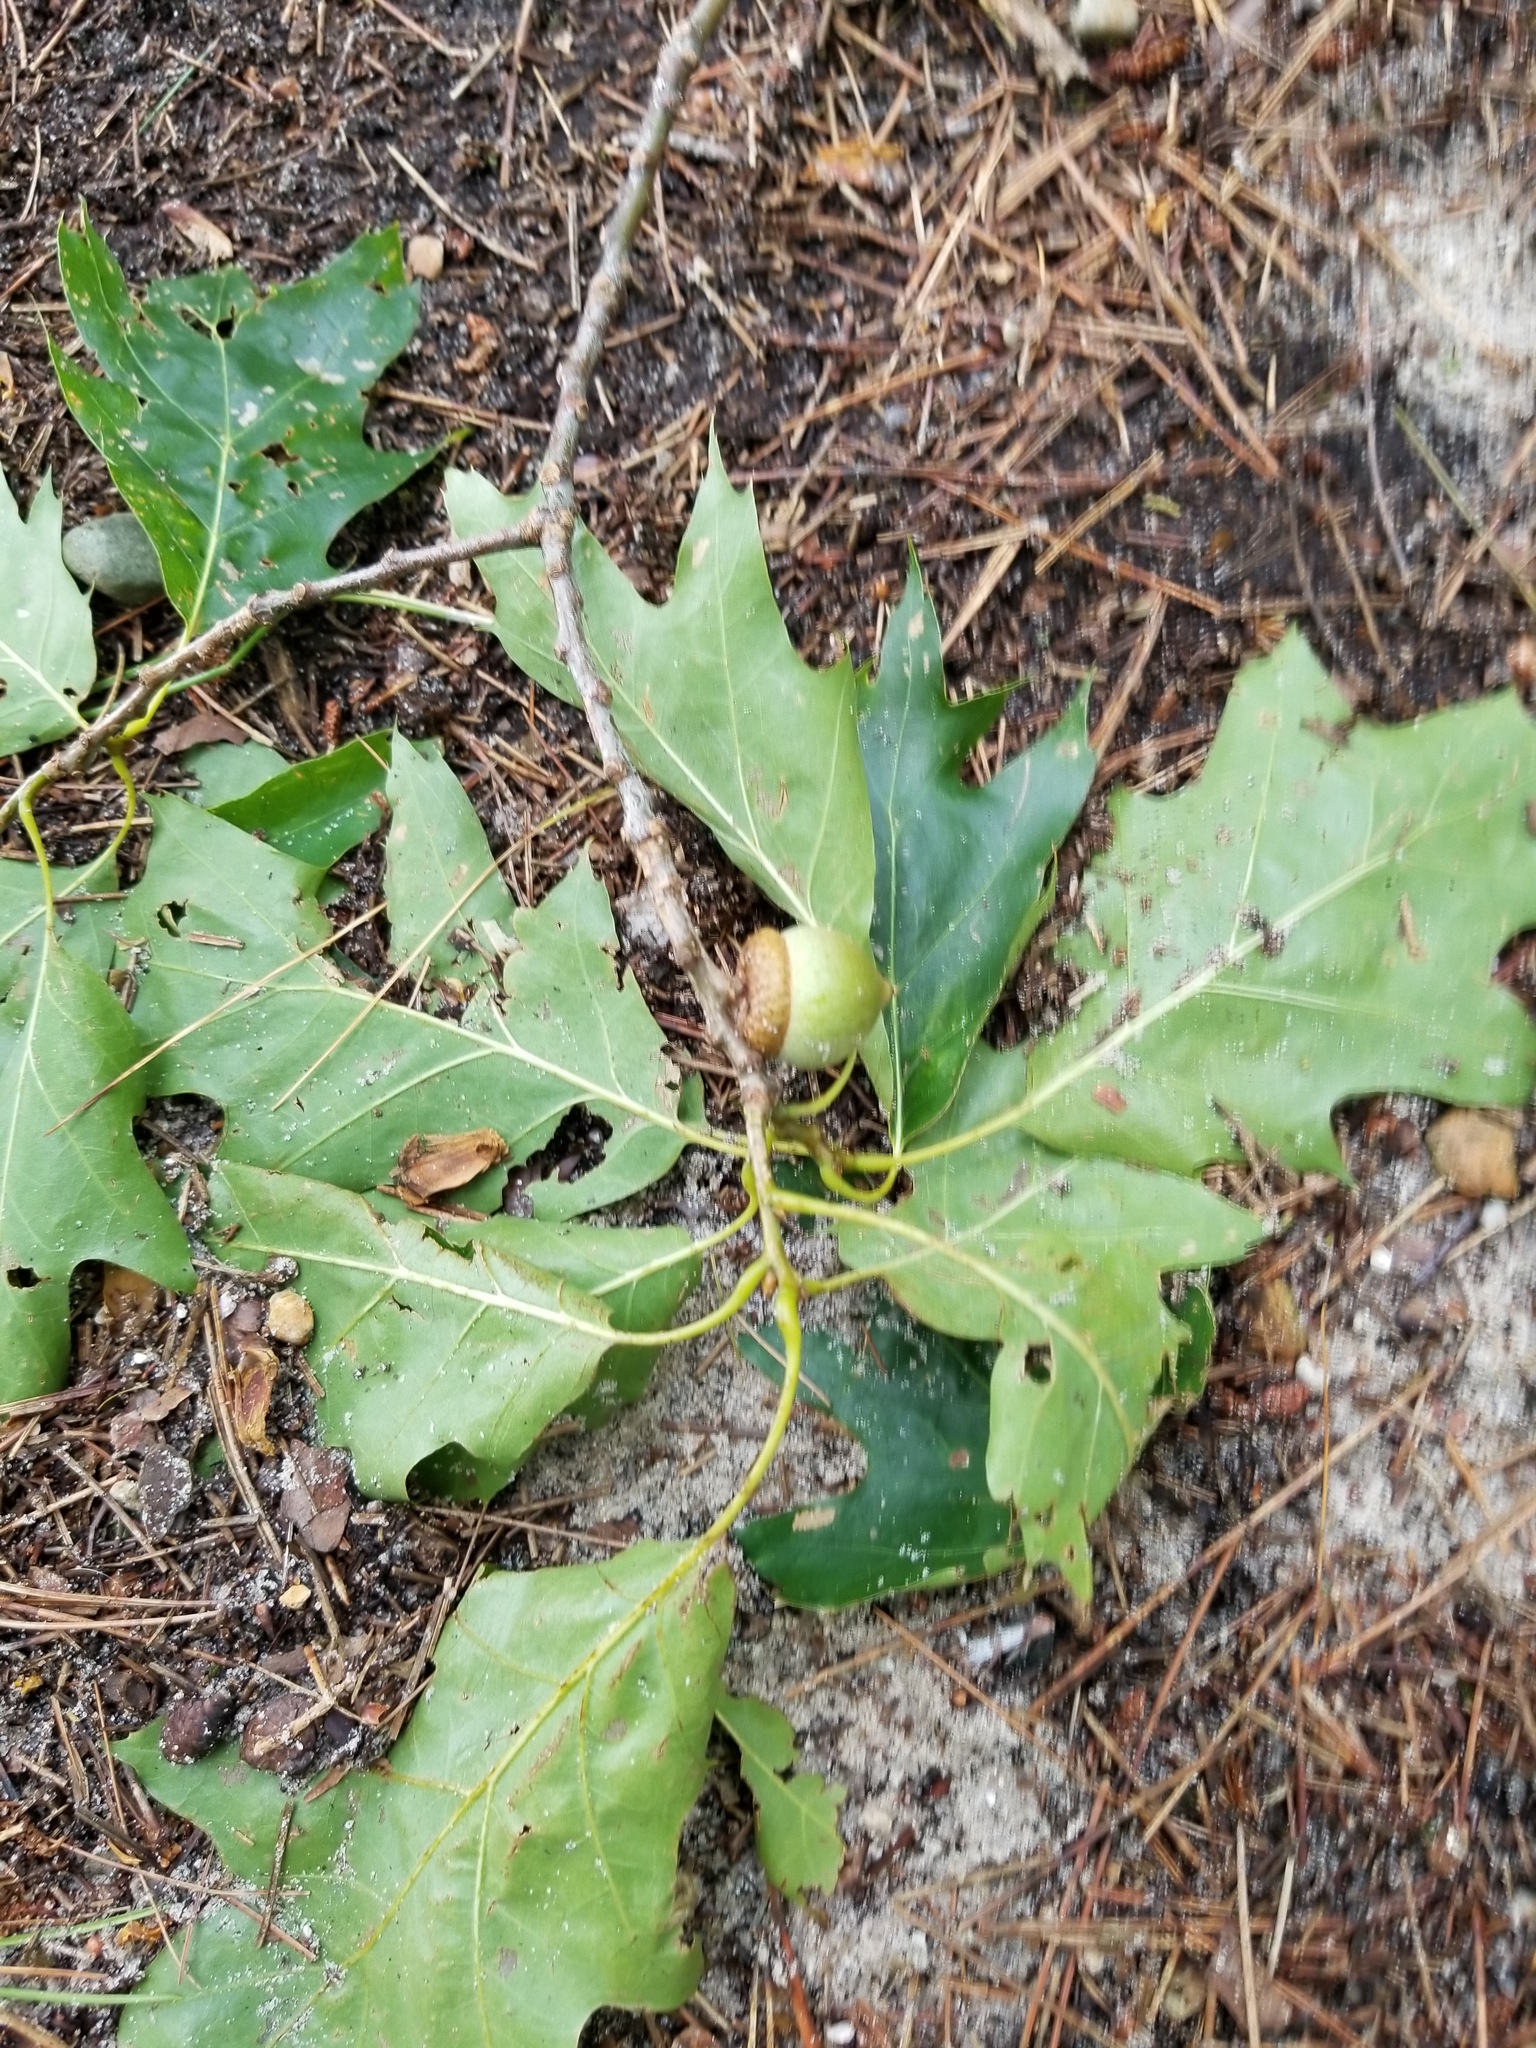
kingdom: Plantae
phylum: Tracheophyta
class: Magnoliopsida
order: Fagales
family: Fagaceae
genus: Quercus
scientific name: Quercus rubra
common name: Red oak
